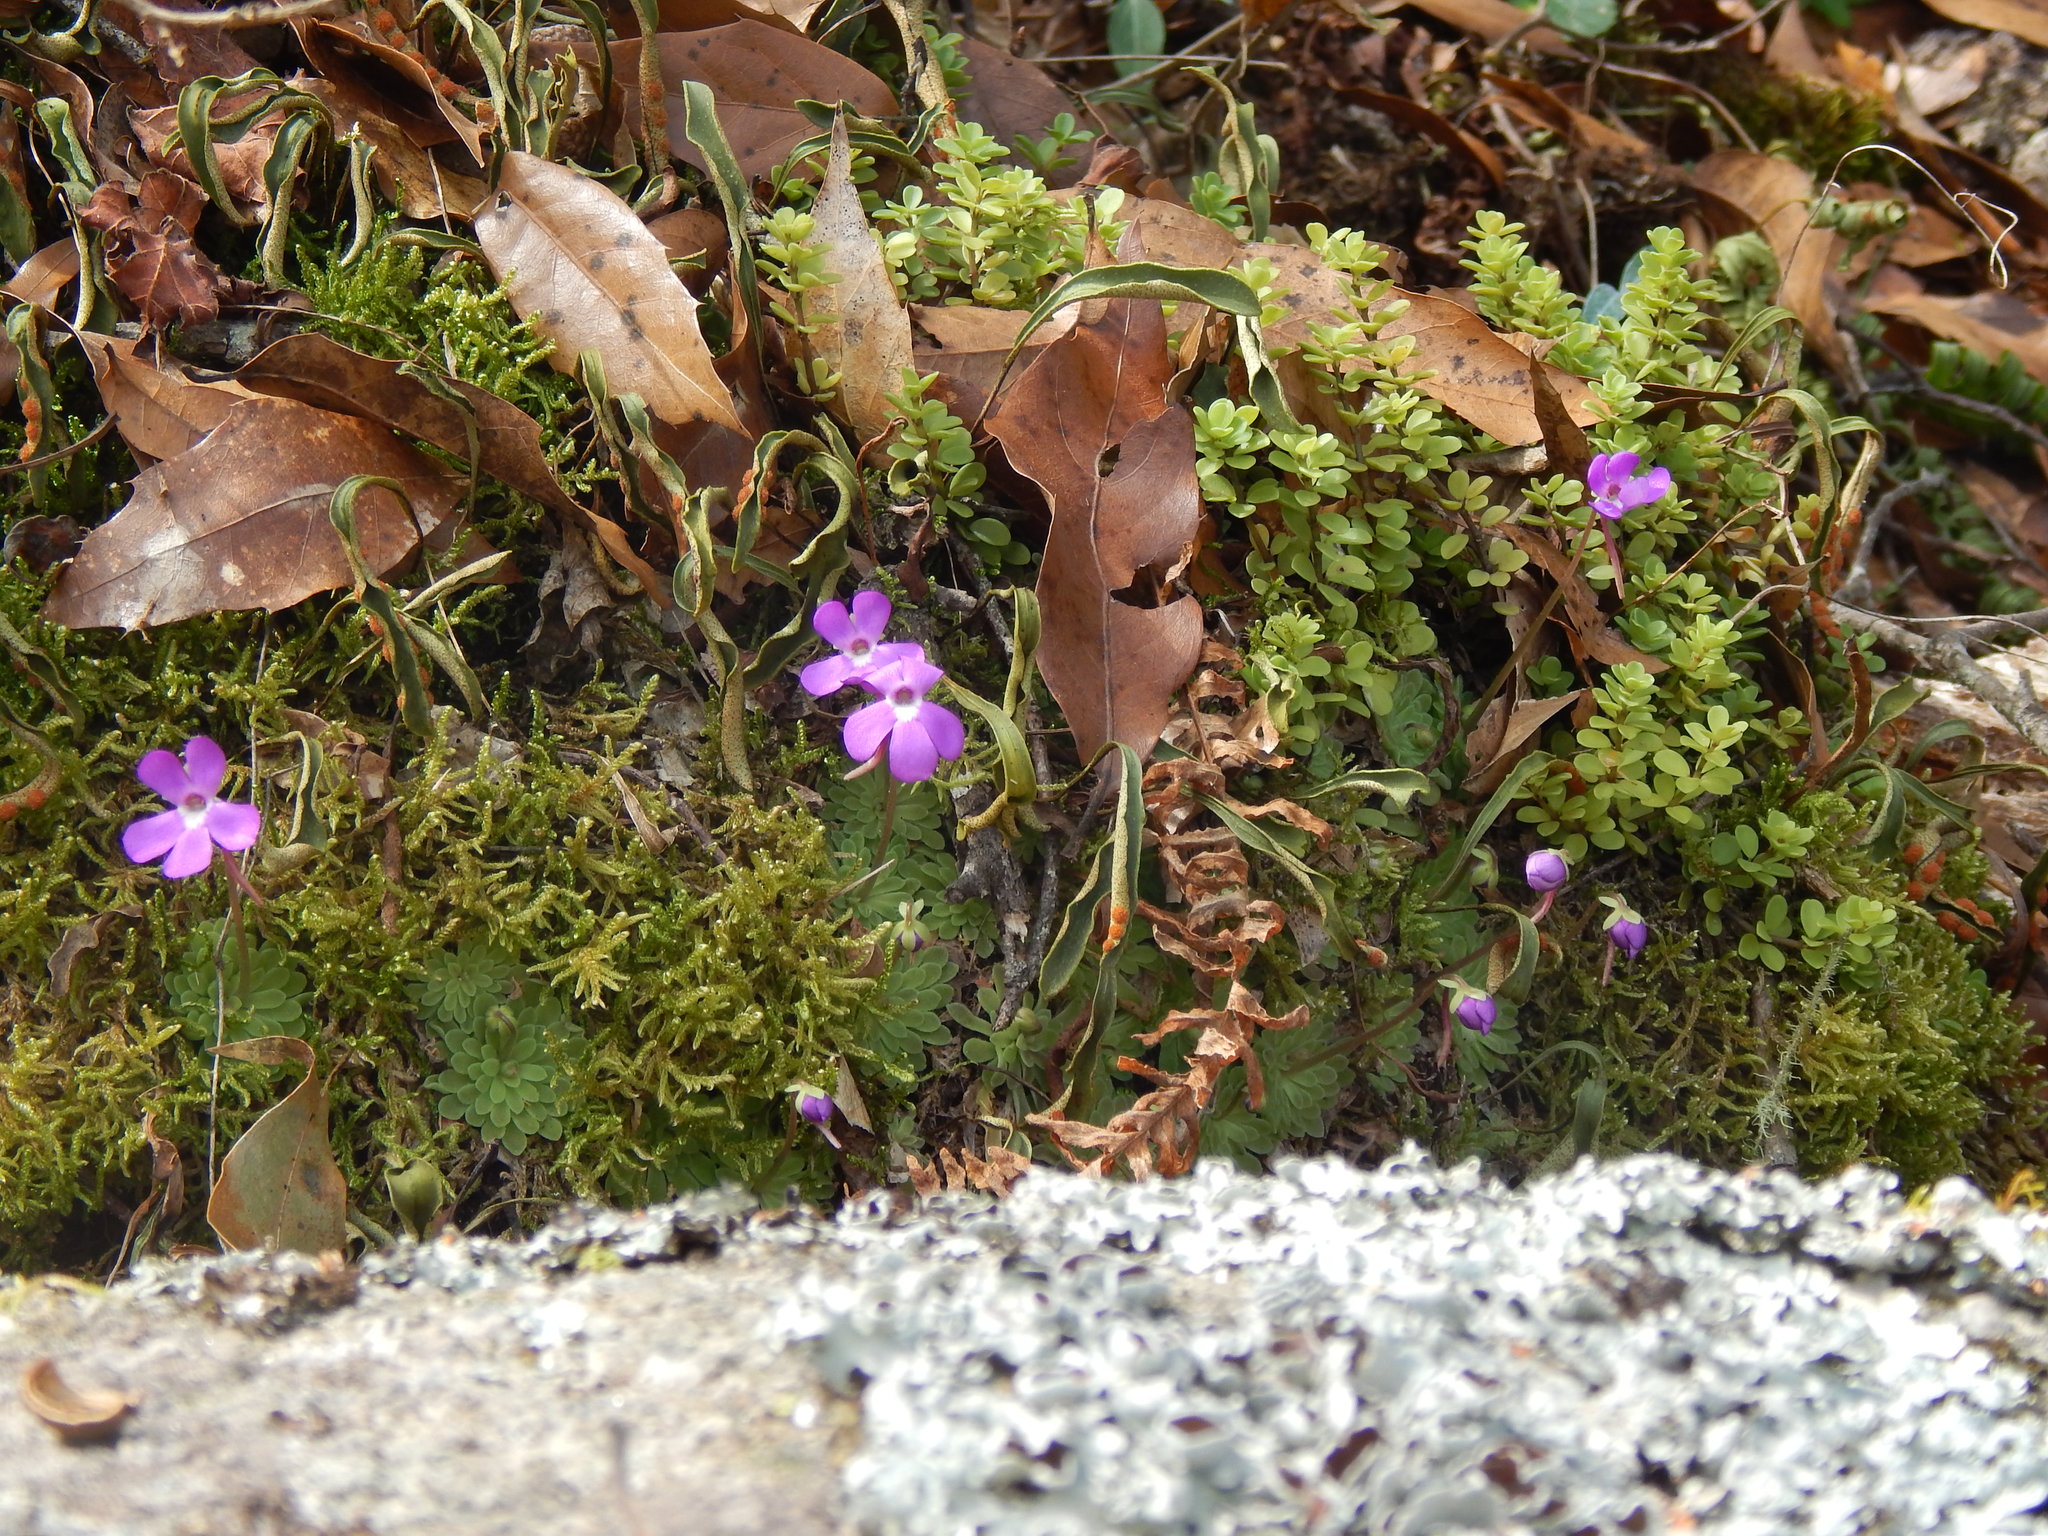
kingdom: Plantae
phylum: Tracheophyta
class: Magnoliopsida
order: Lamiales
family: Lentibulariaceae
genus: Pinguicula
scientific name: Pinguicula esseriana
